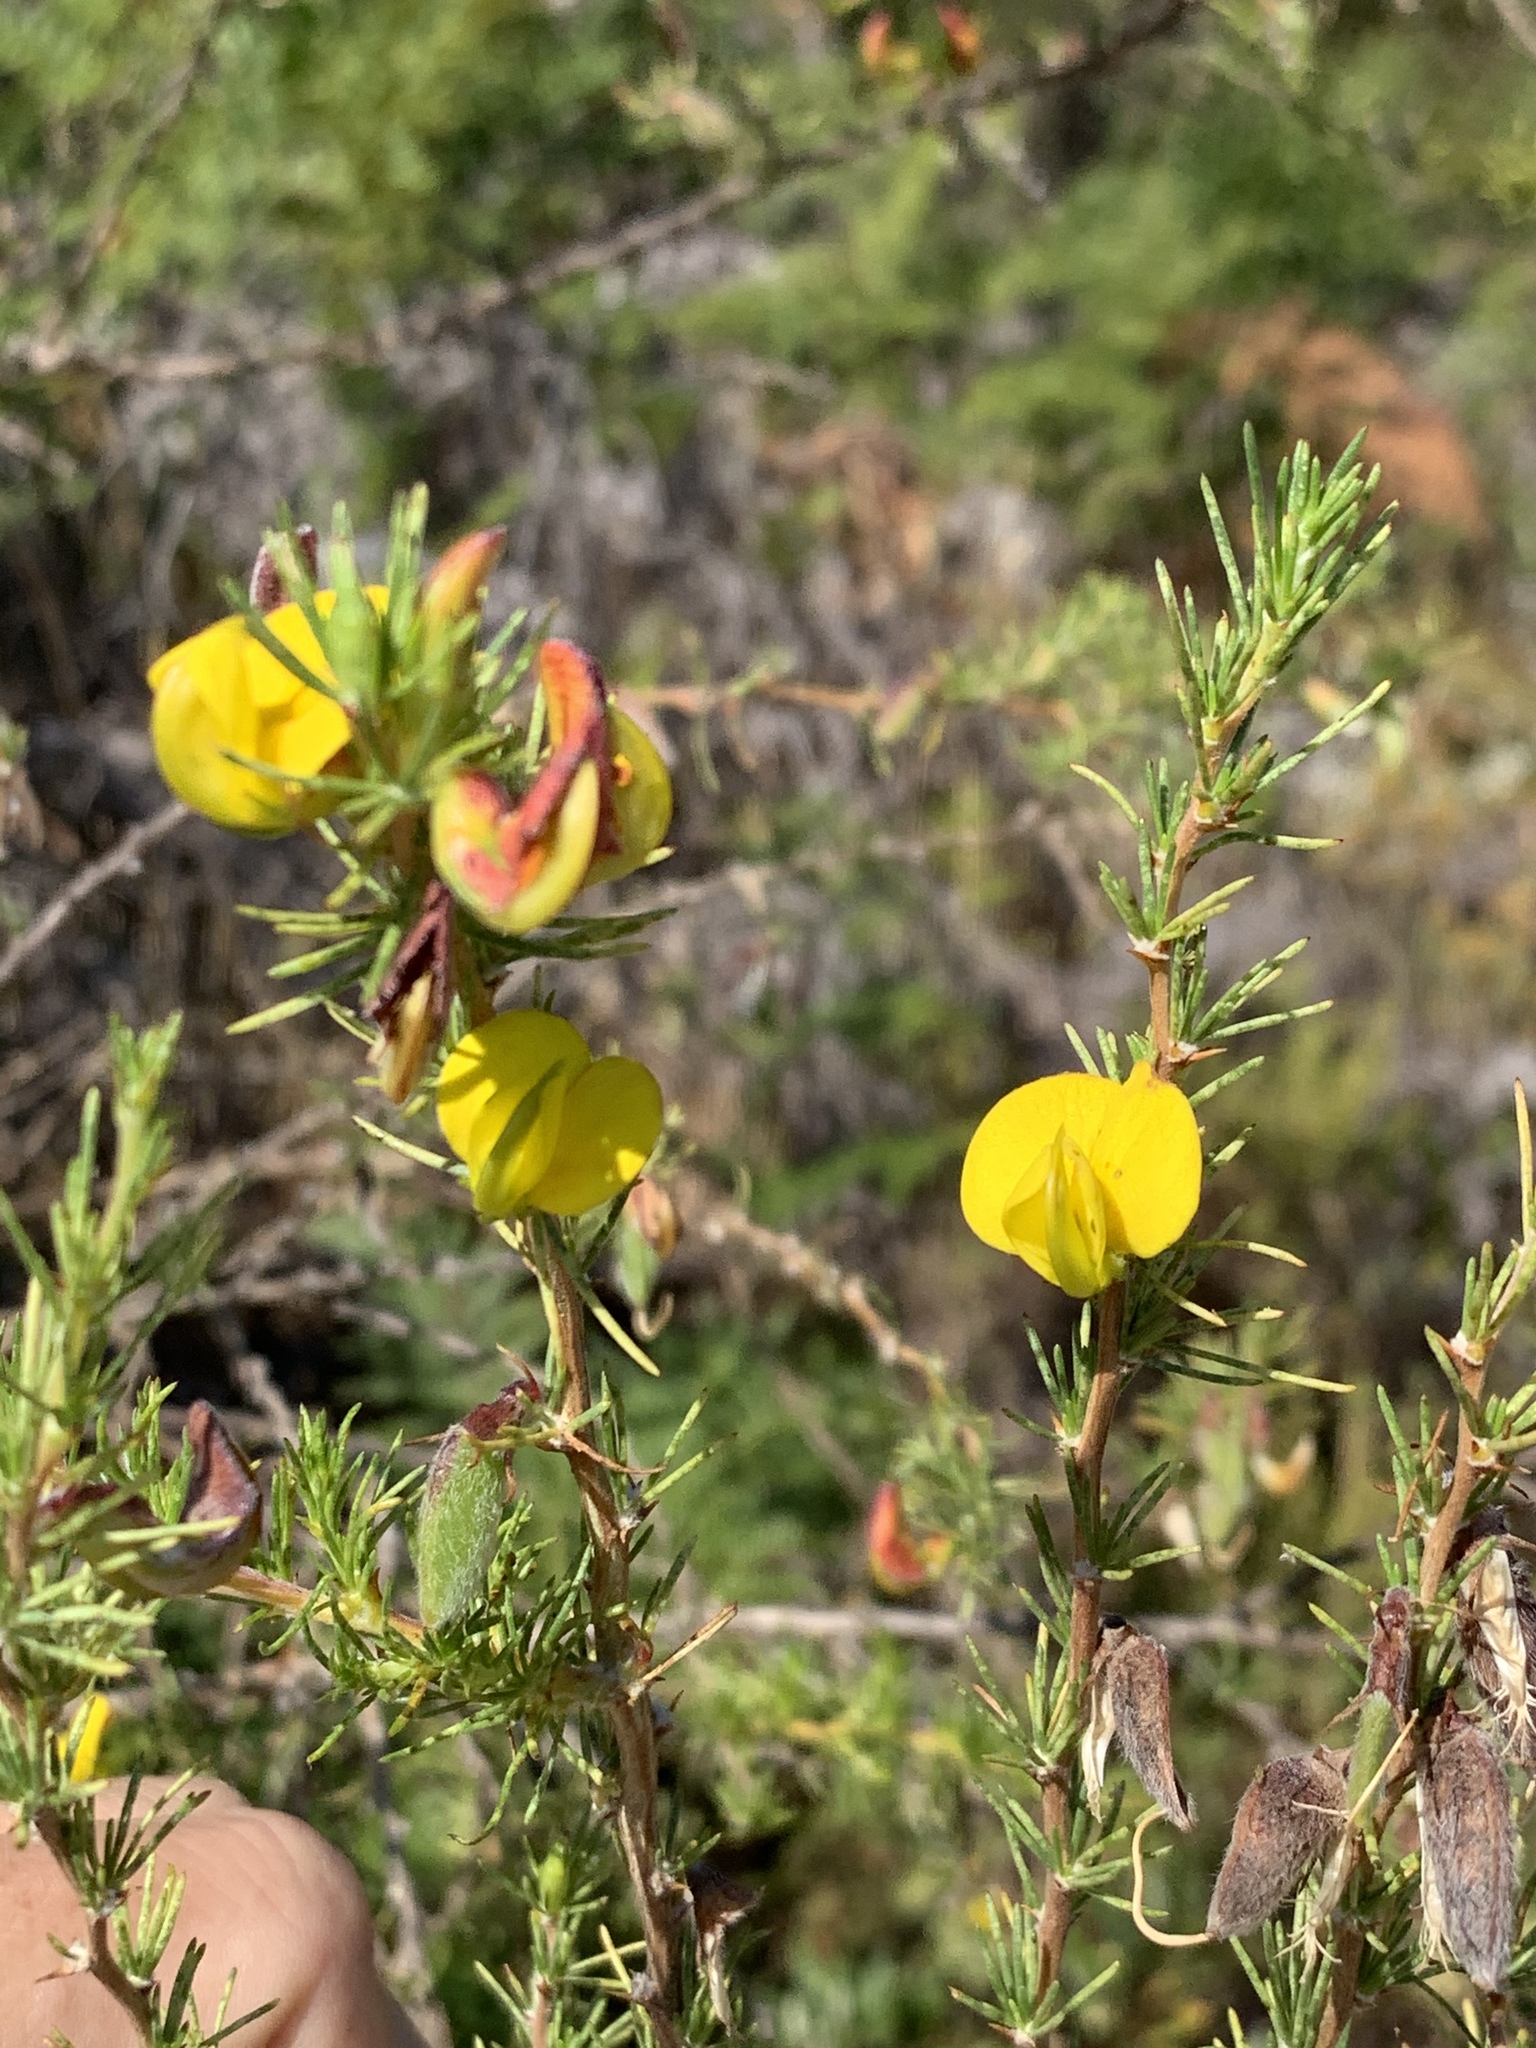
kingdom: Plantae
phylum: Tracheophyta
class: Magnoliopsida
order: Fabales
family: Fabaceae
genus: Aspalathus
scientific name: Aspalathus uniflora
